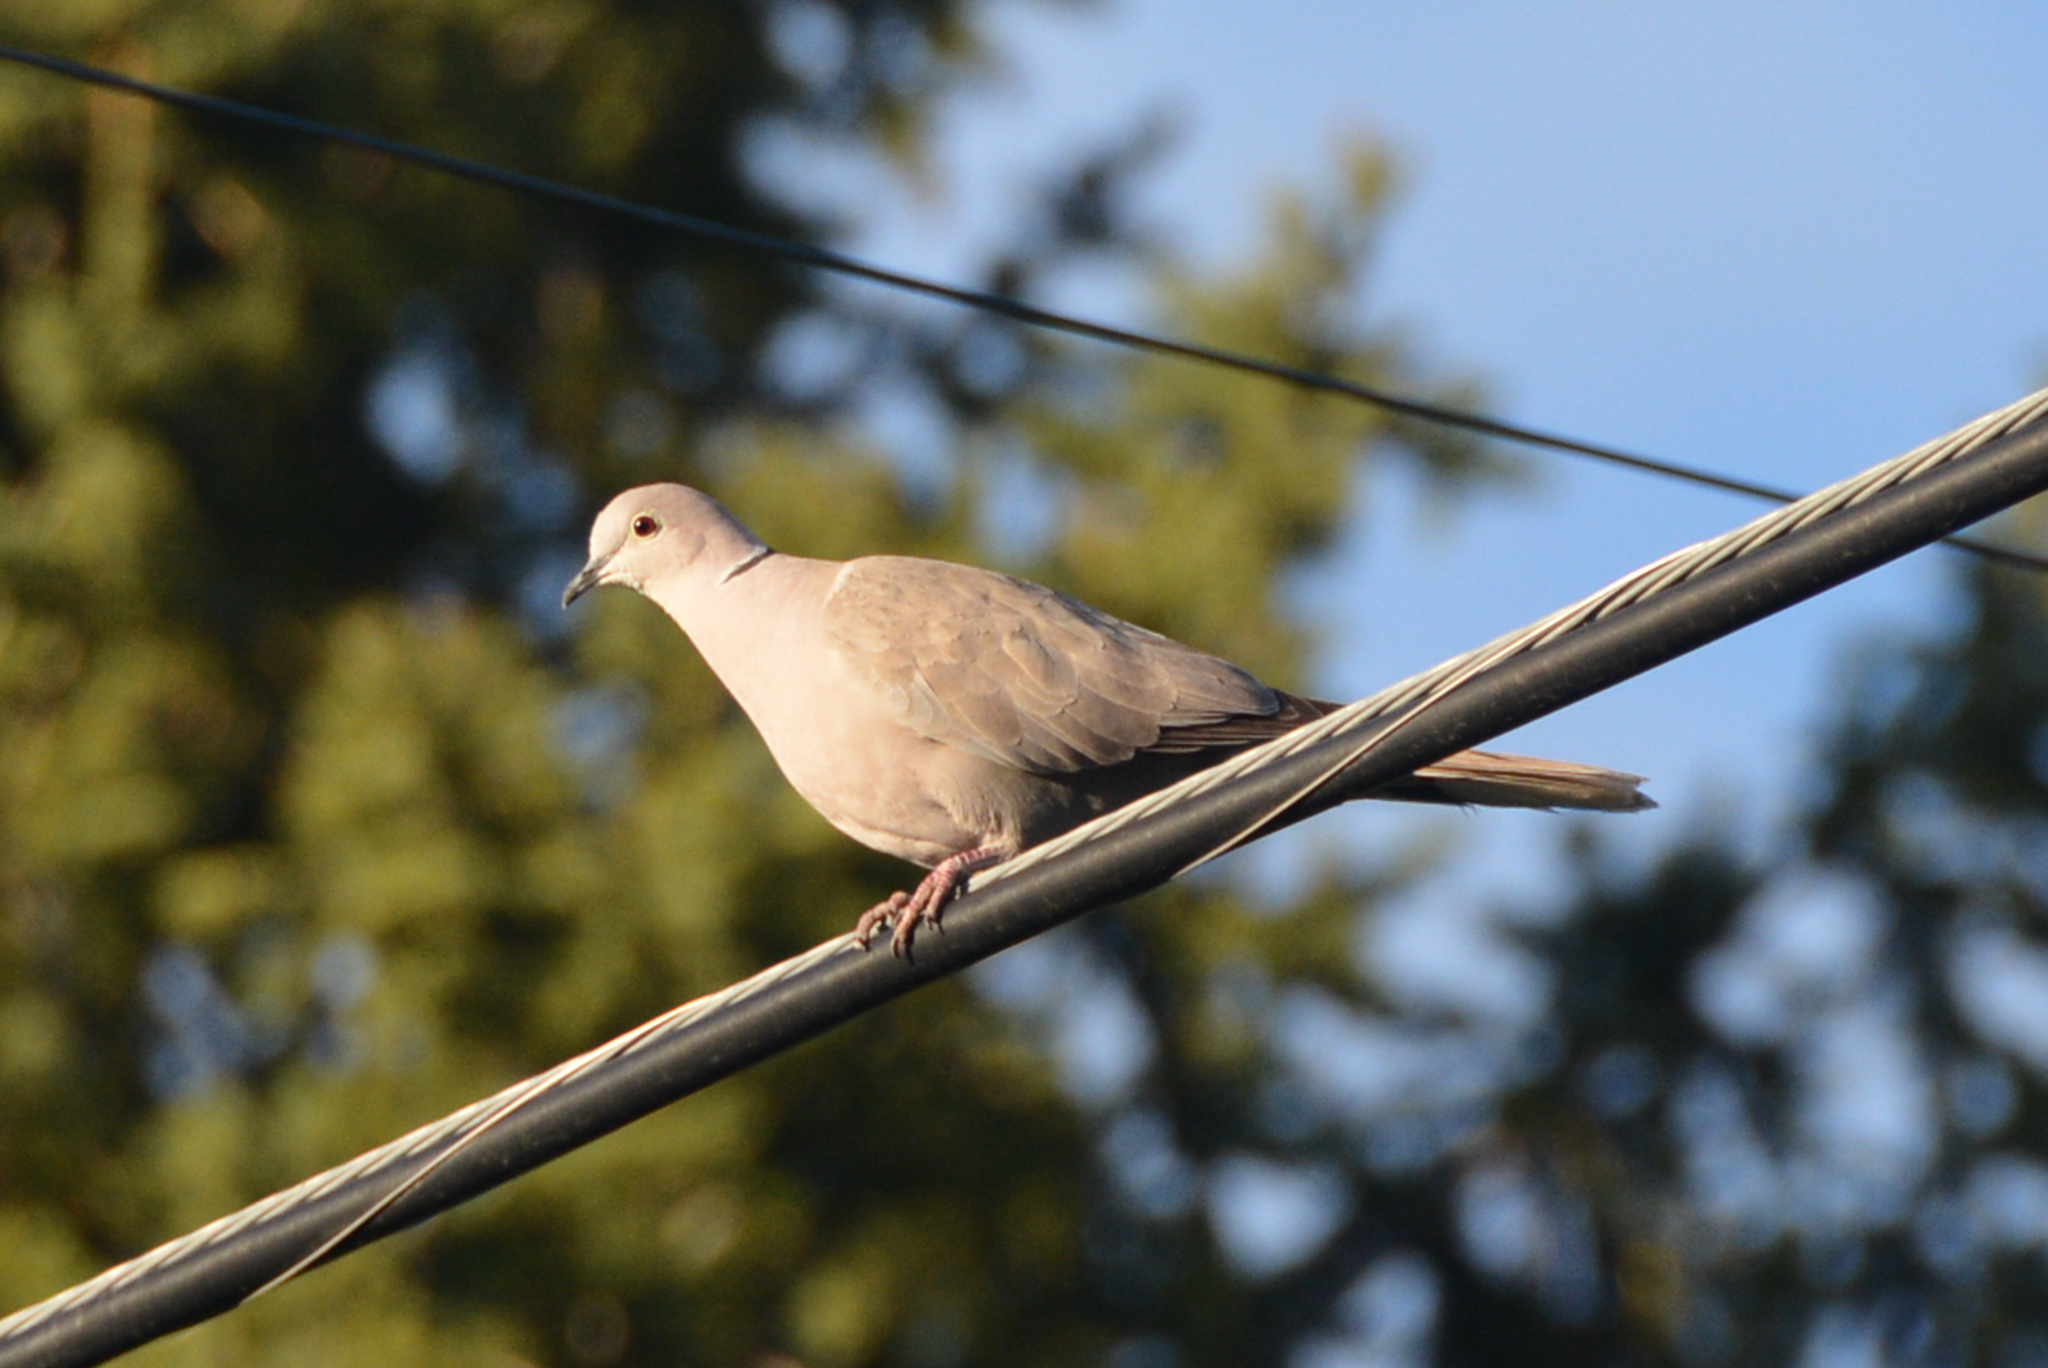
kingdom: Animalia
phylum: Chordata
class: Aves
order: Columbiformes
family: Columbidae
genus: Streptopelia
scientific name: Streptopelia decaocto
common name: Eurasian collared dove
